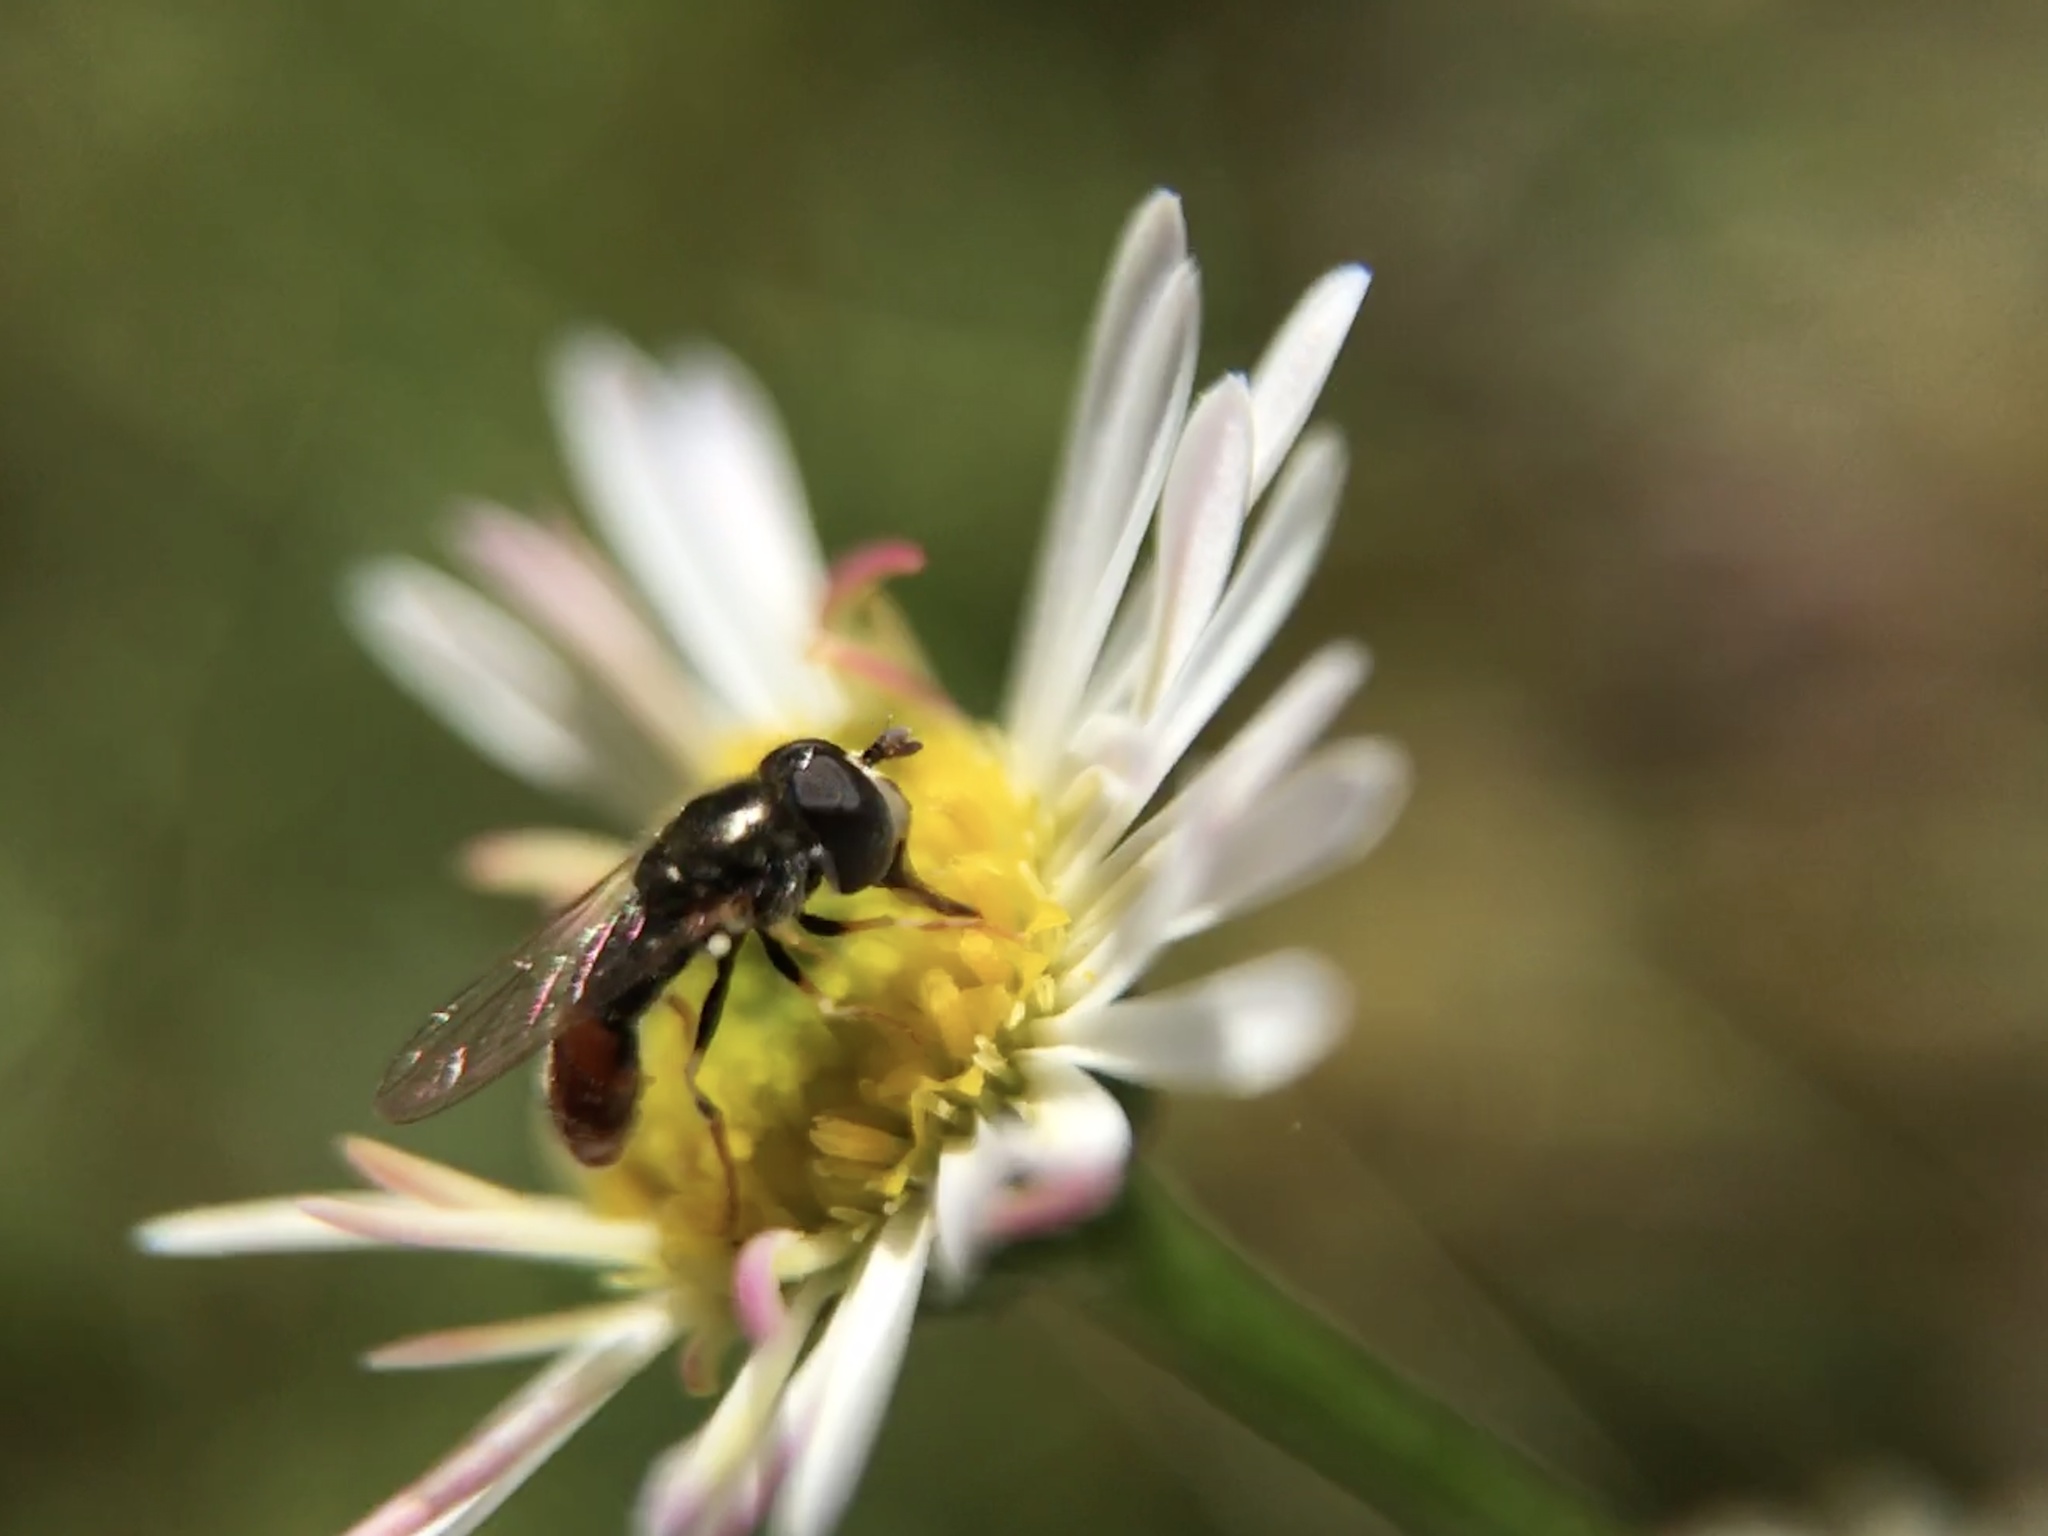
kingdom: Animalia
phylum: Arthropoda
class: Insecta
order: Diptera
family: Syrphidae
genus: Paragus
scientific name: Paragus haemorrhous
